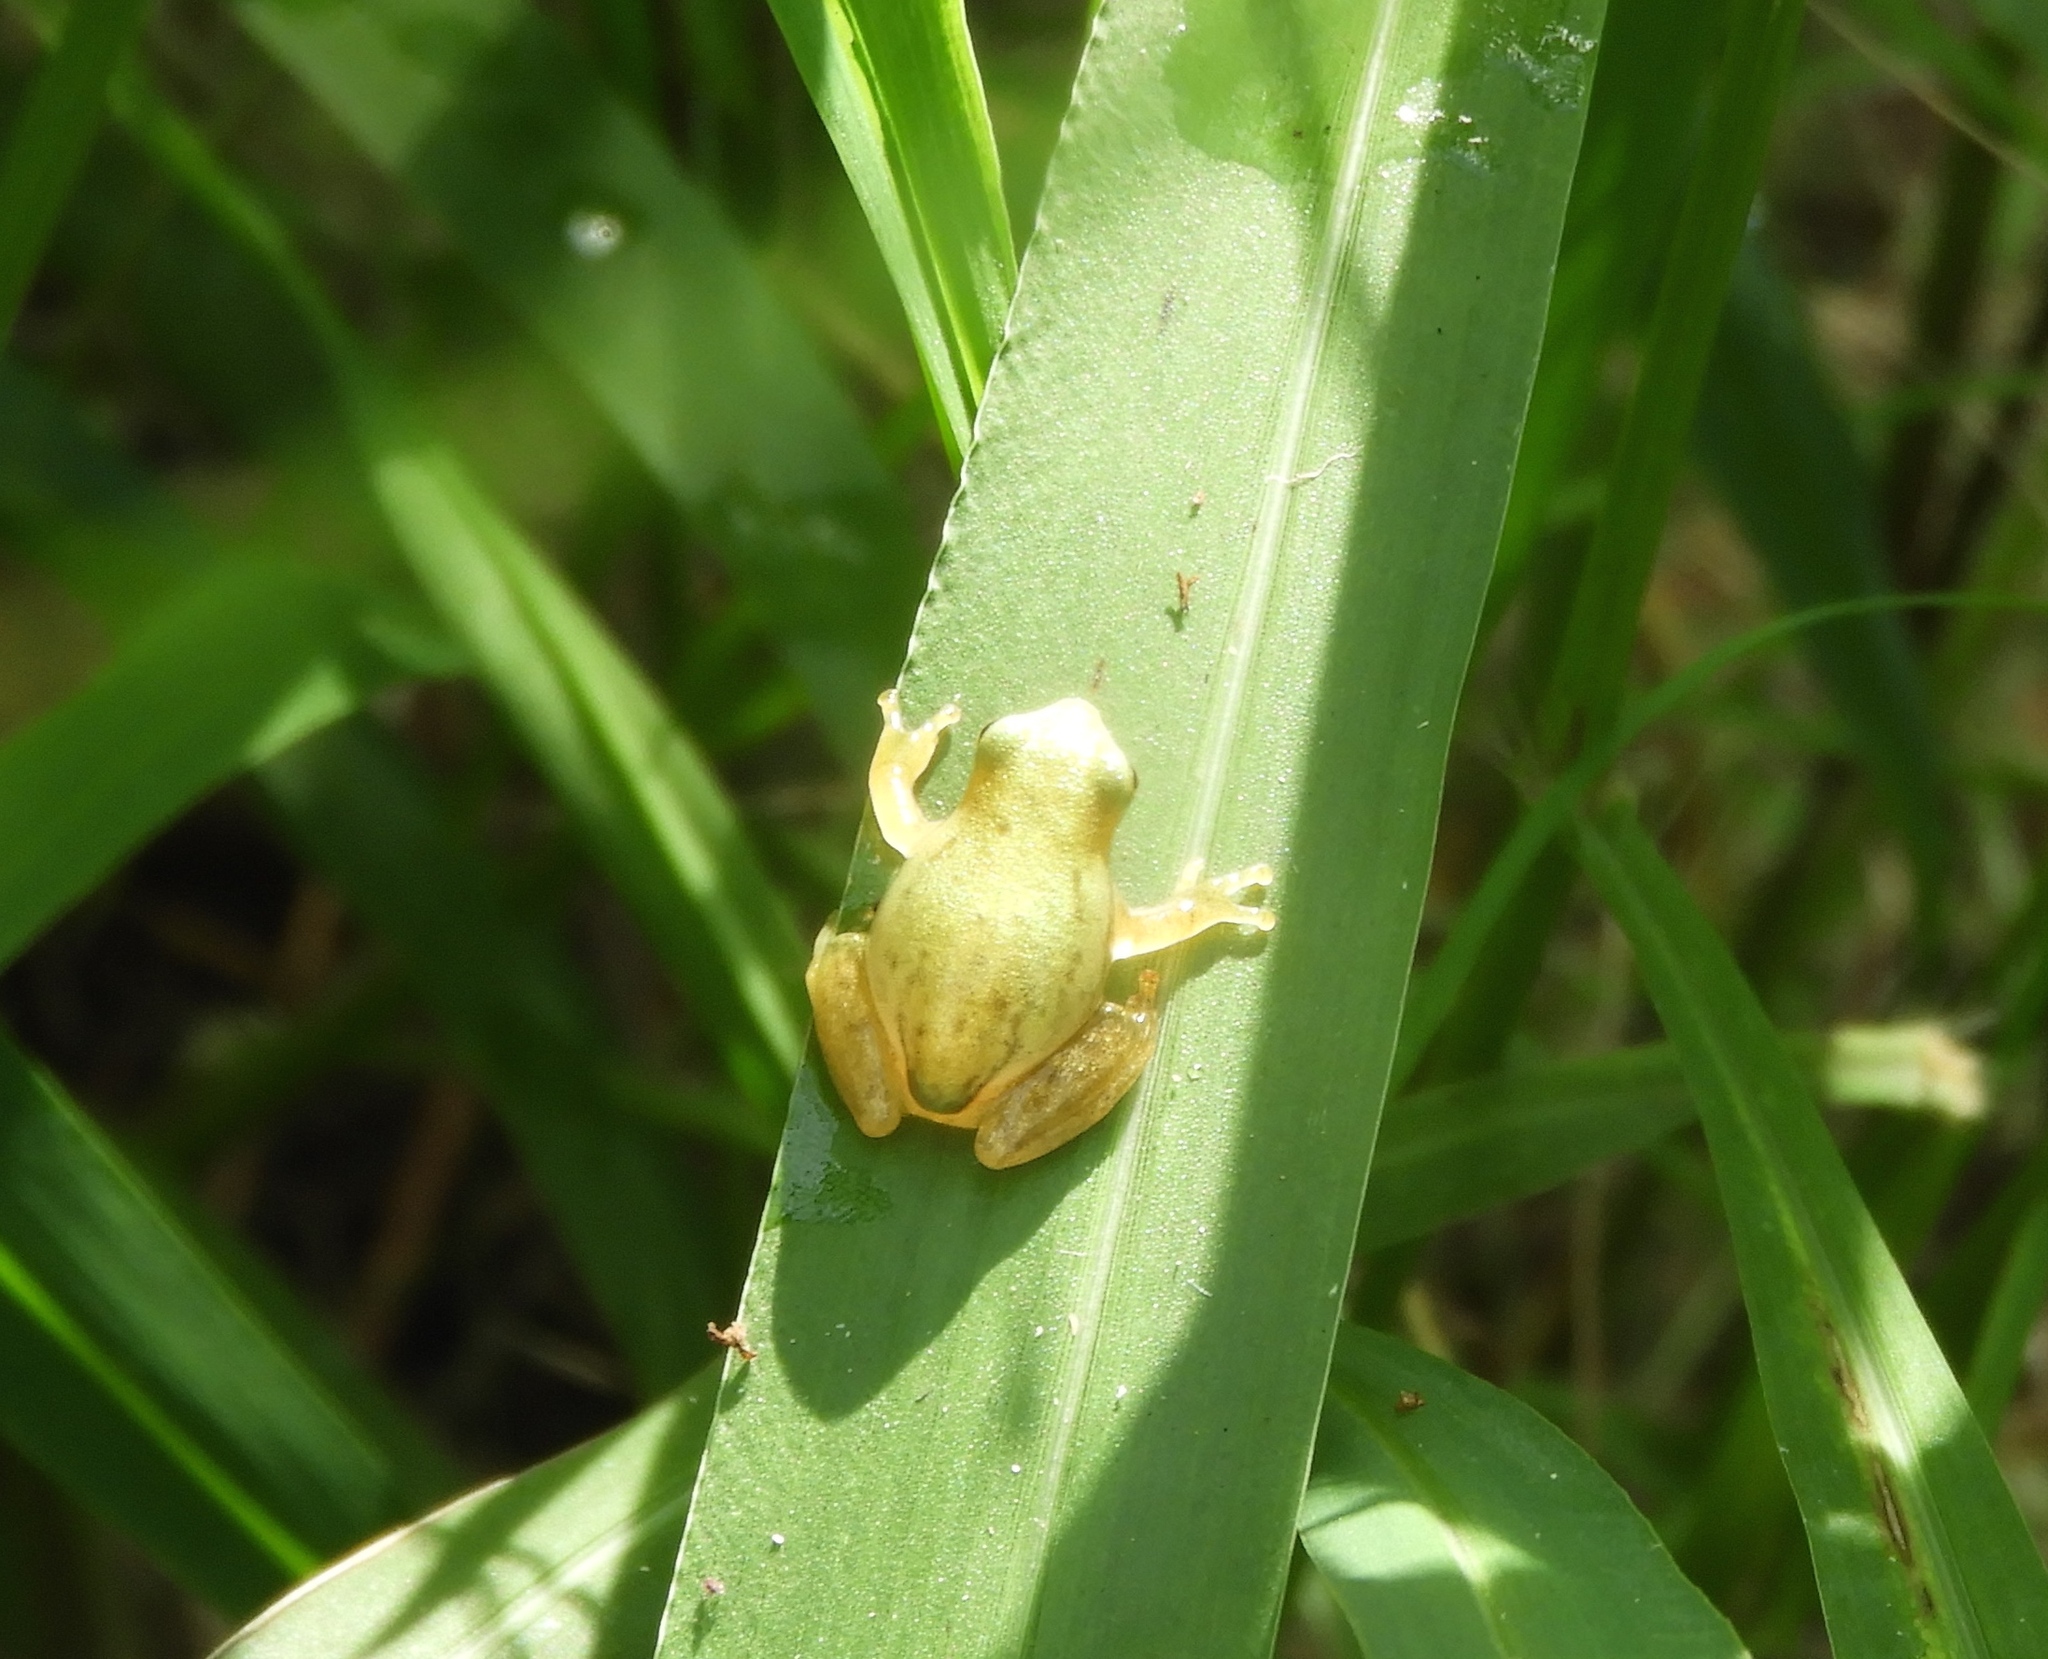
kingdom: Animalia
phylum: Chordata
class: Amphibia
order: Anura
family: Hylidae
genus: Tlalocohyla
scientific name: Tlalocohyla smithii
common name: Dwarf mexican treefrog
